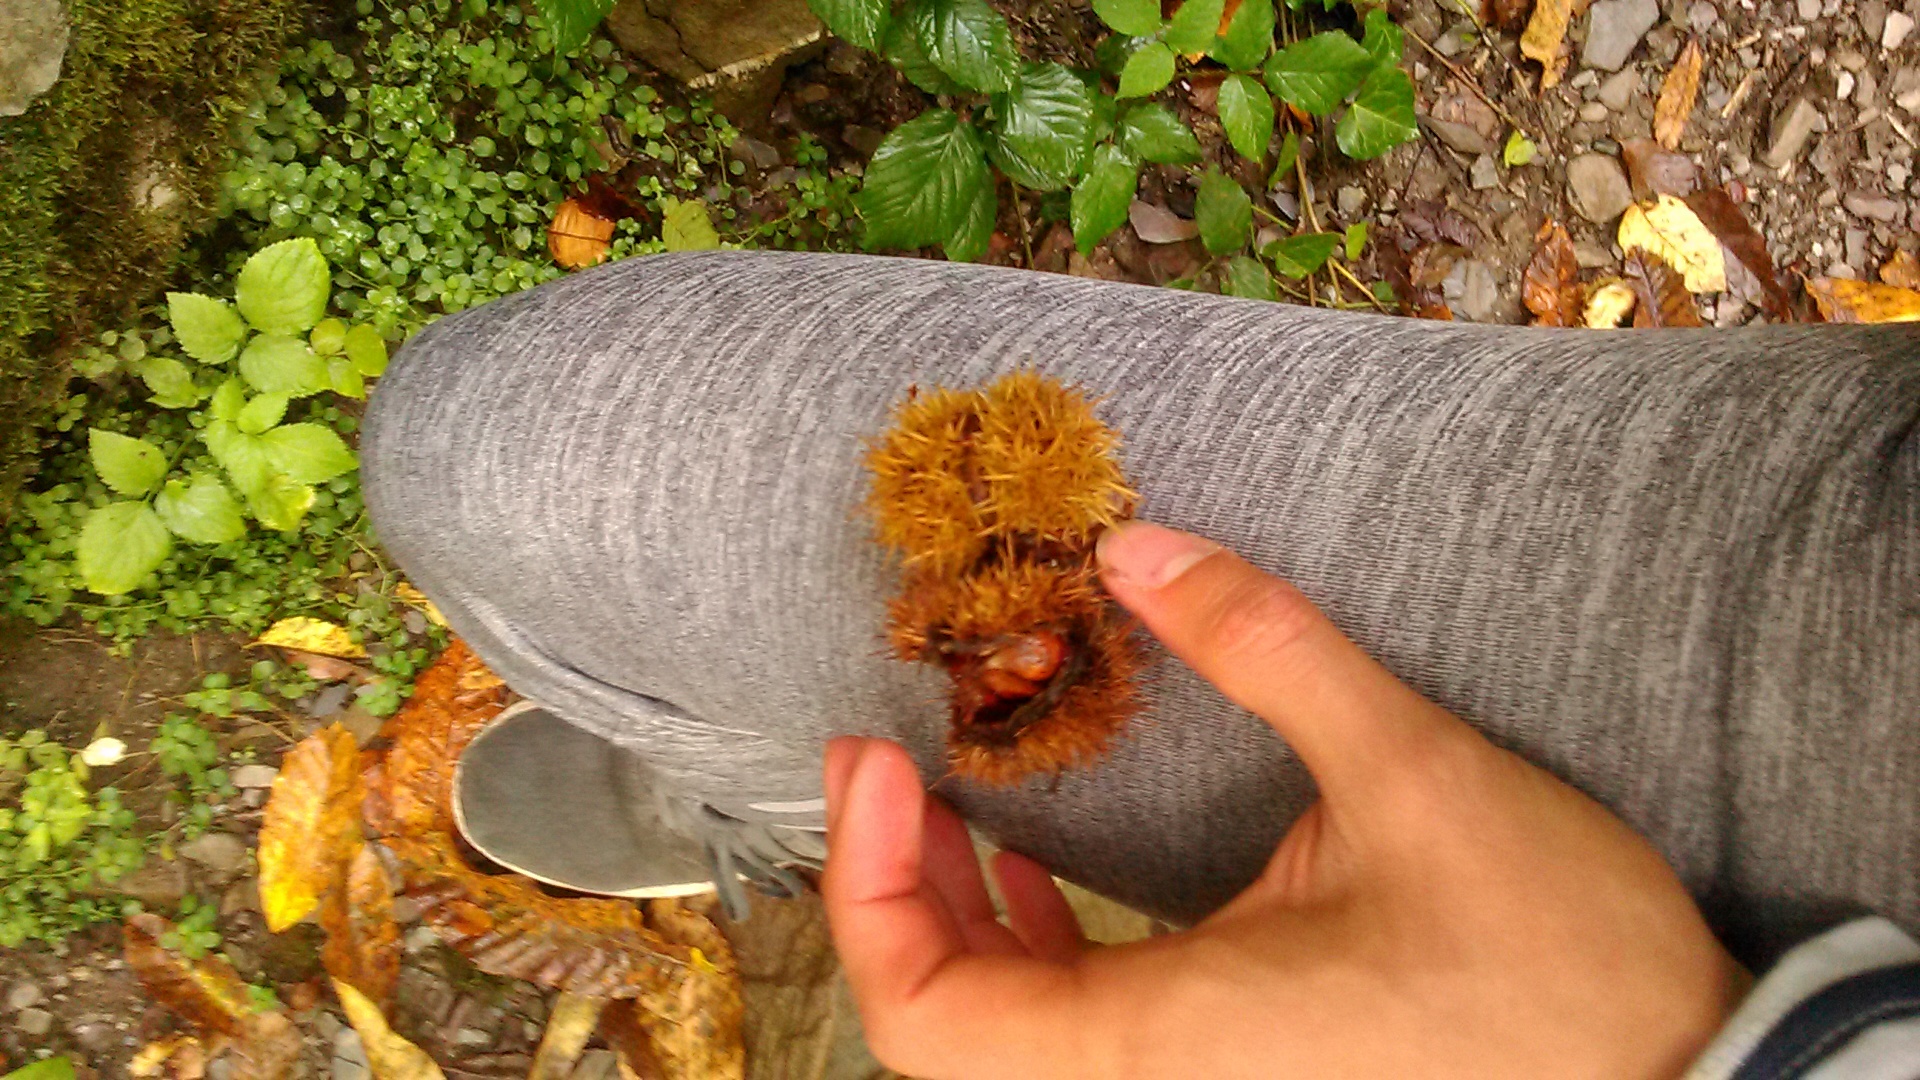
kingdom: Plantae
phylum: Tracheophyta
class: Magnoliopsida
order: Fagales
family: Fagaceae
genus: Castanea
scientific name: Castanea sativa
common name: Sweet chestnut
